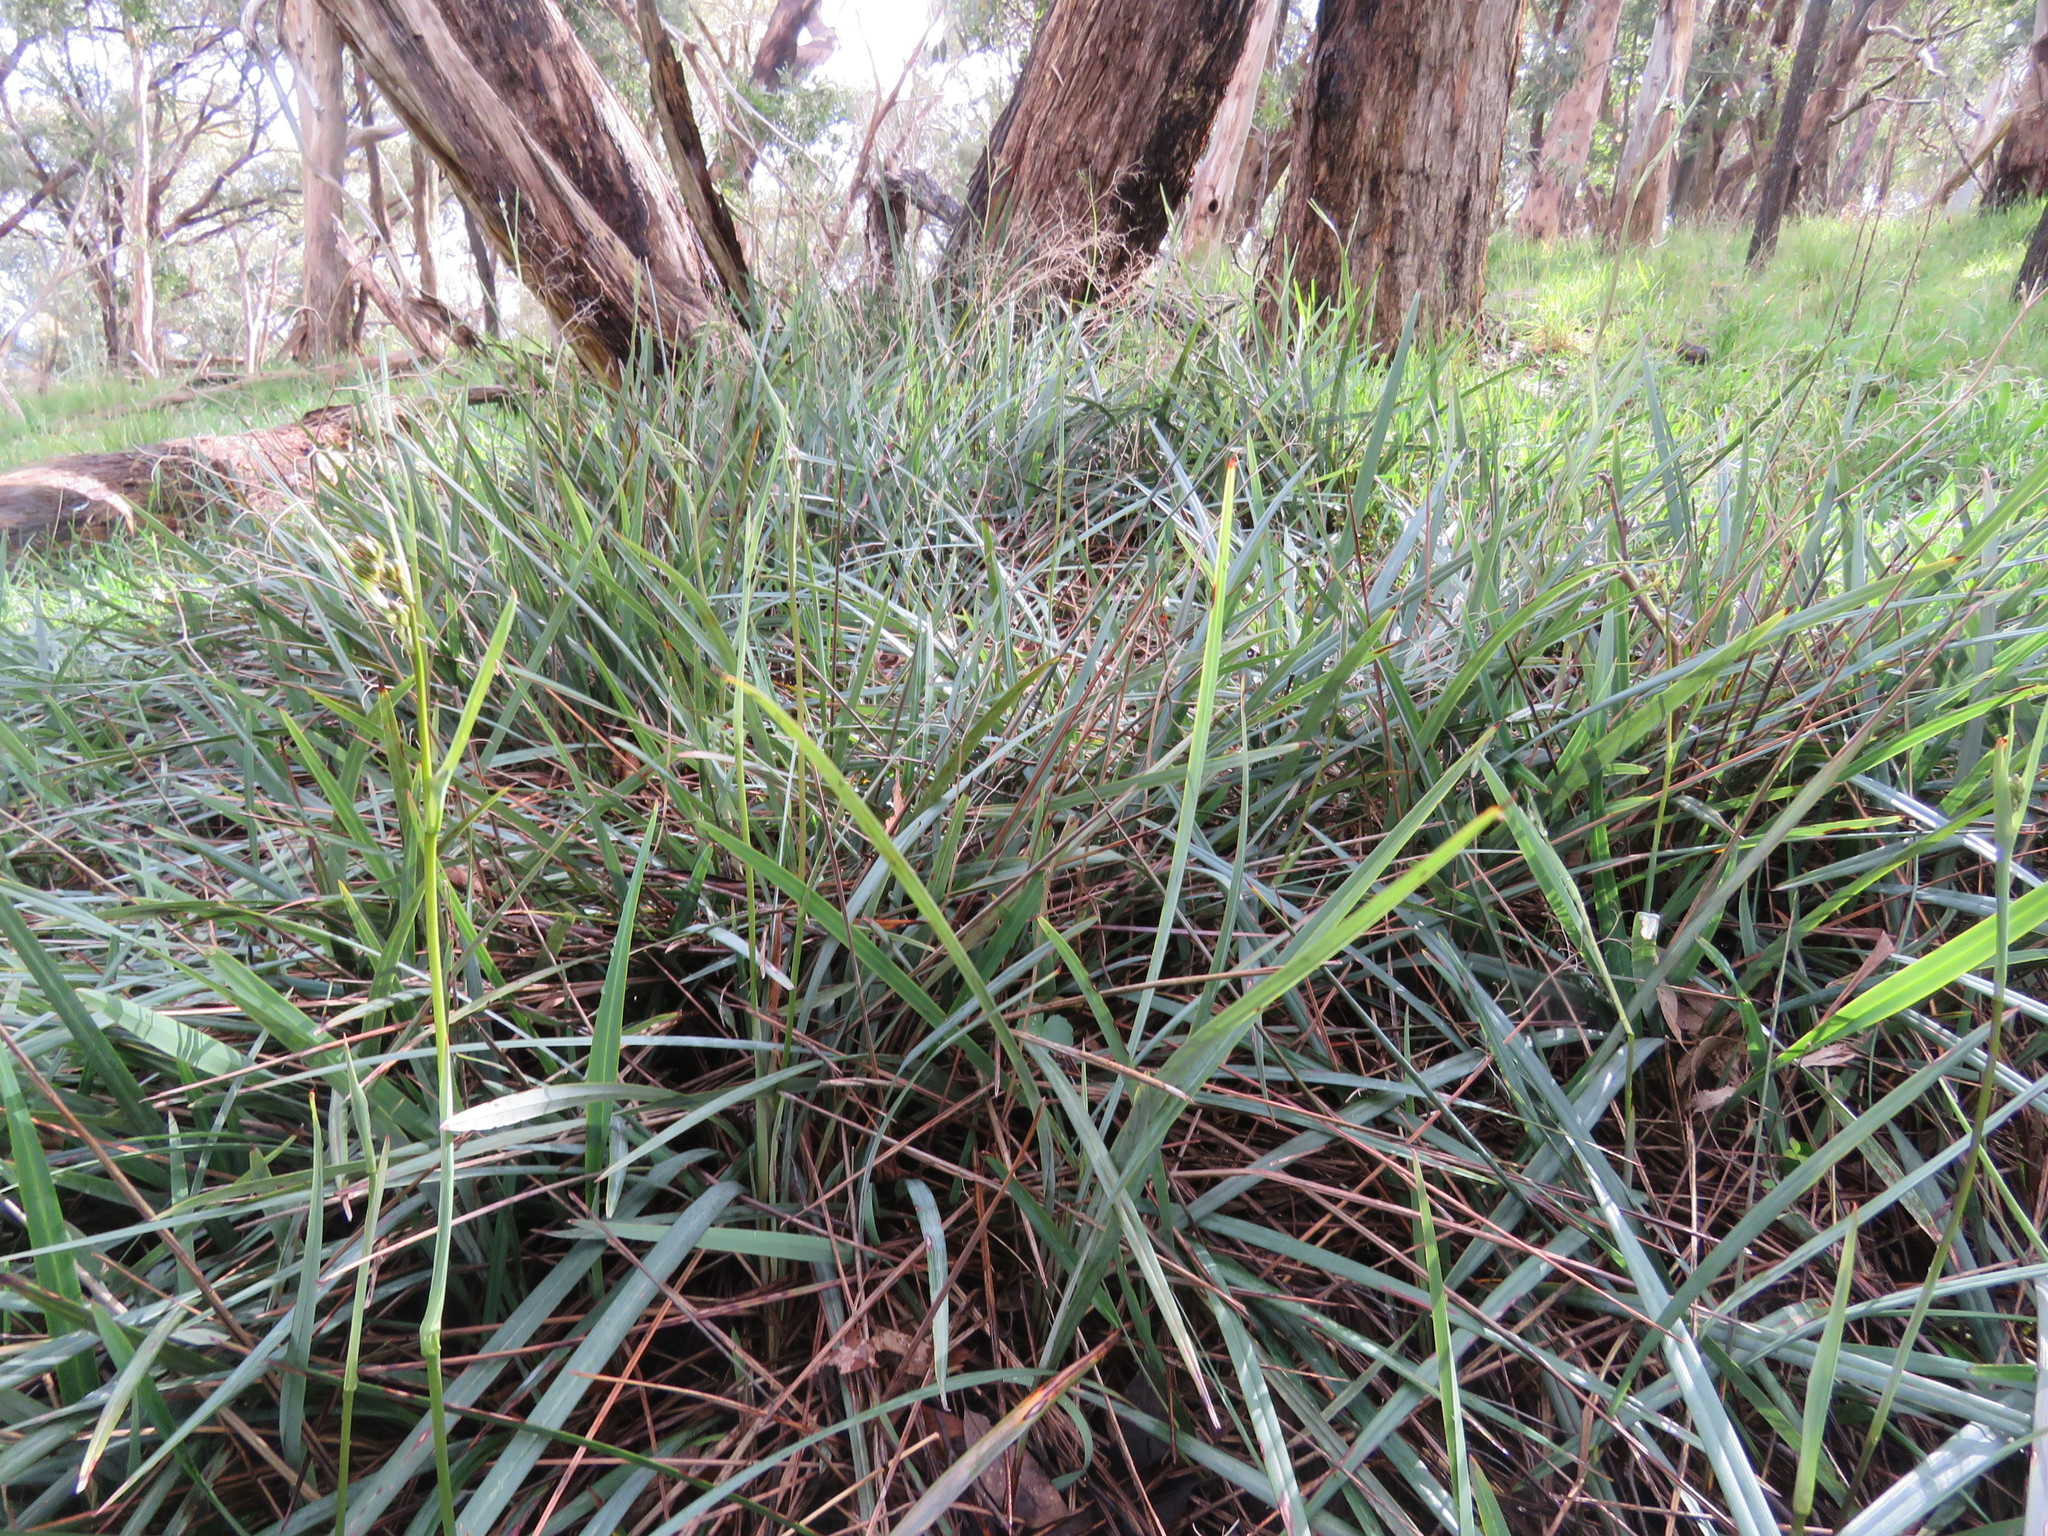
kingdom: Plantae
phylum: Tracheophyta
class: Liliopsida
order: Asparagales
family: Asphodelaceae
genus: Dianella
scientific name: Dianella revoluta
